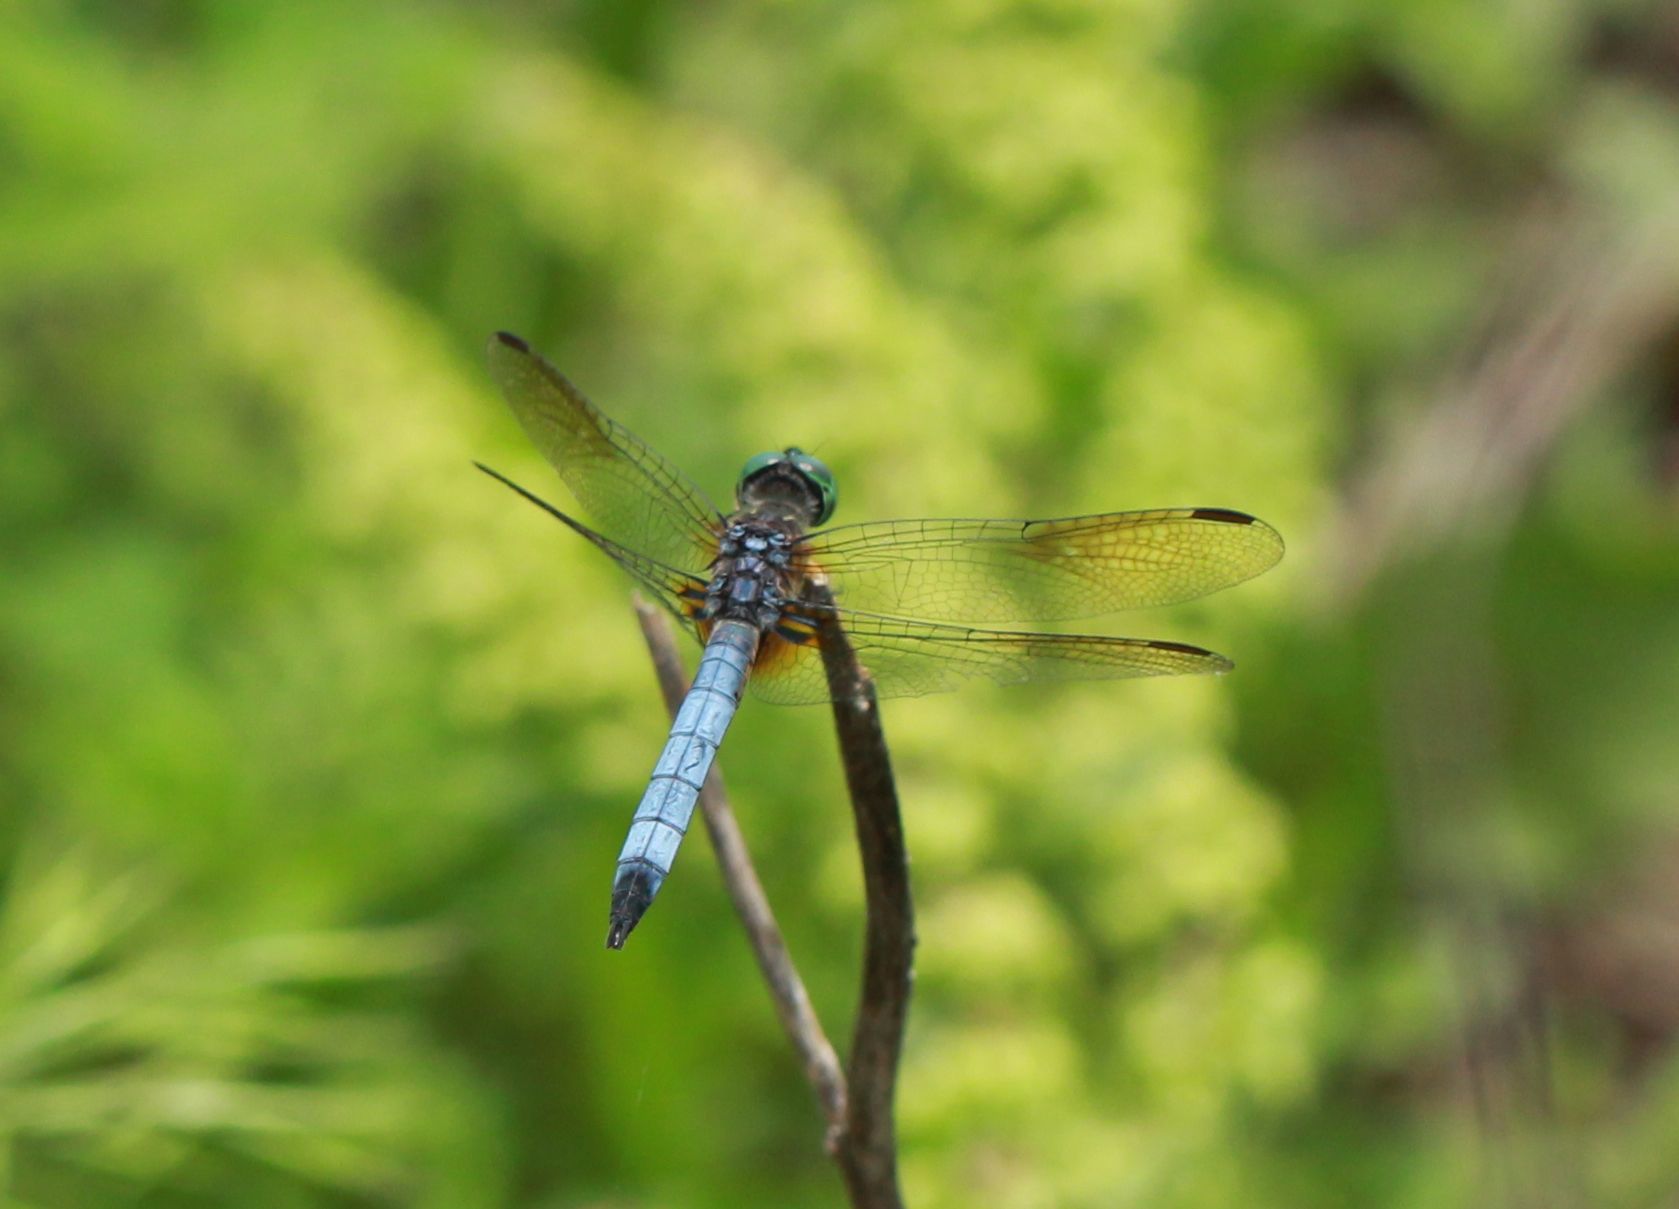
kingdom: Animalia
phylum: Arthropoda
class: Insecta
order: Odonata
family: Libellulidae
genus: Pachydiplax
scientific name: Pachydiplax longipennis
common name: Blue dasher
